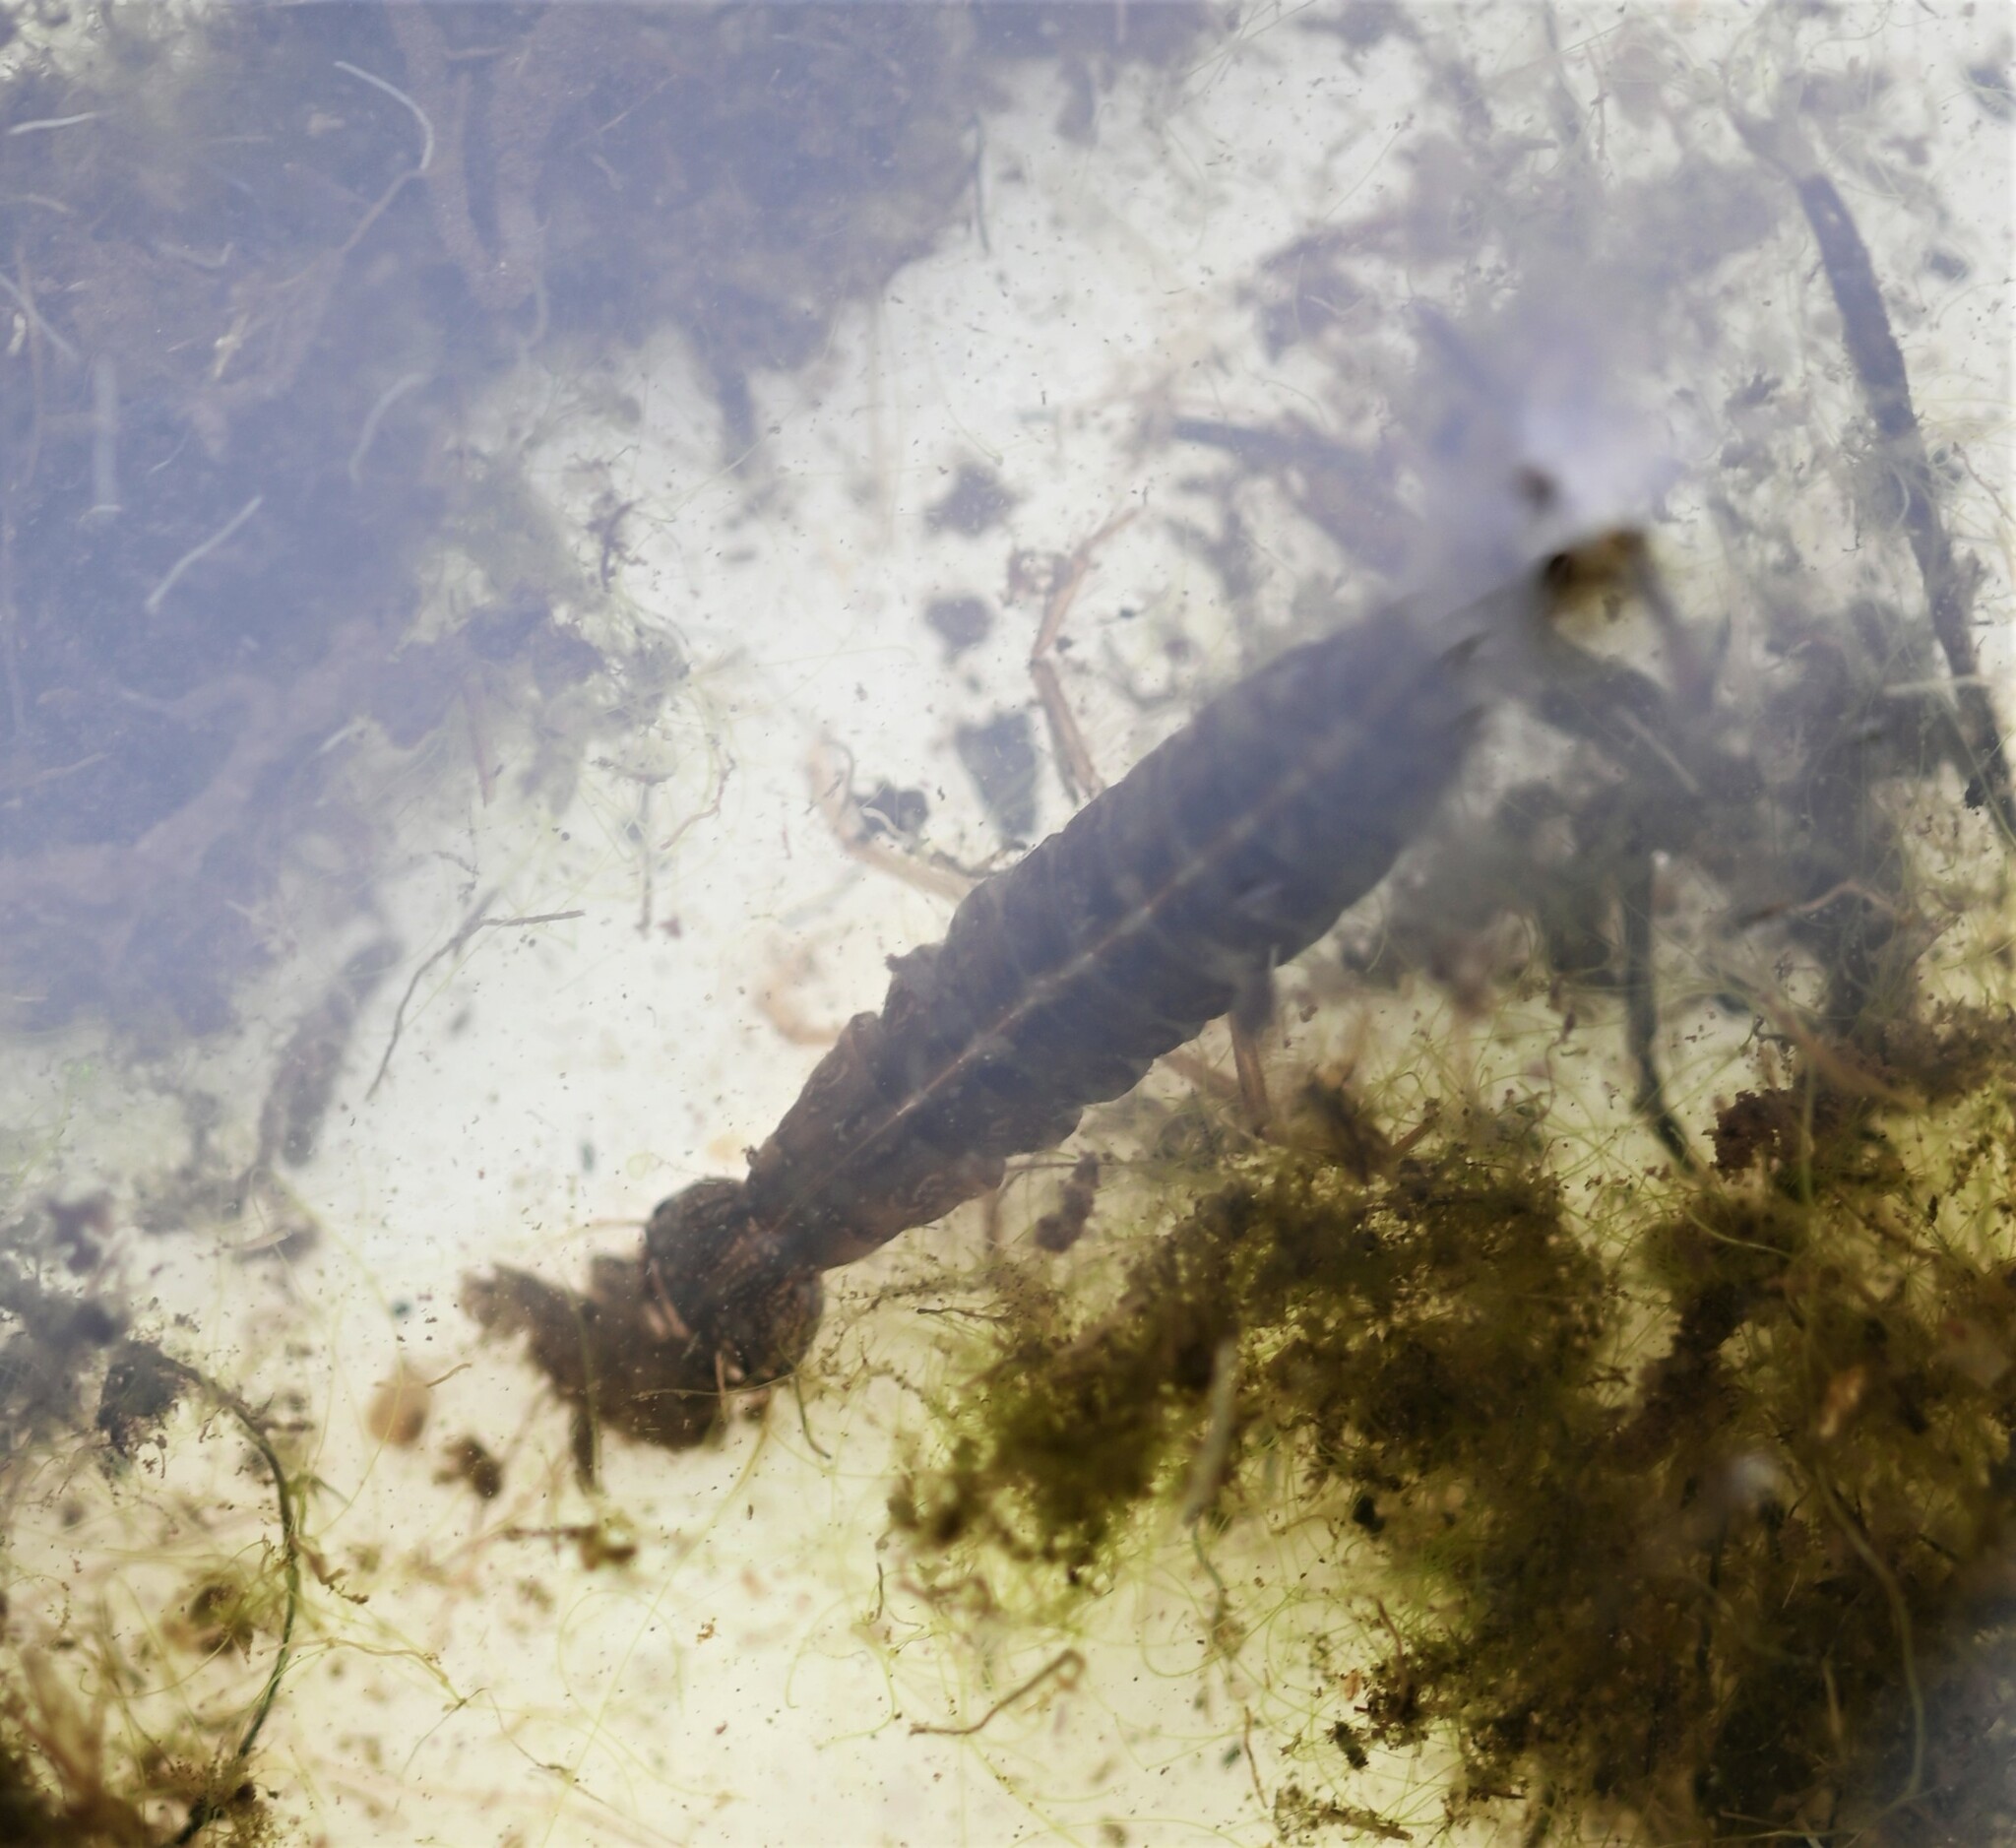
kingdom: Animalia
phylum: Arthropoda
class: Insecta
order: Coleoptera
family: Dytiscidae
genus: Dytiscus
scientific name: Dytiscus
